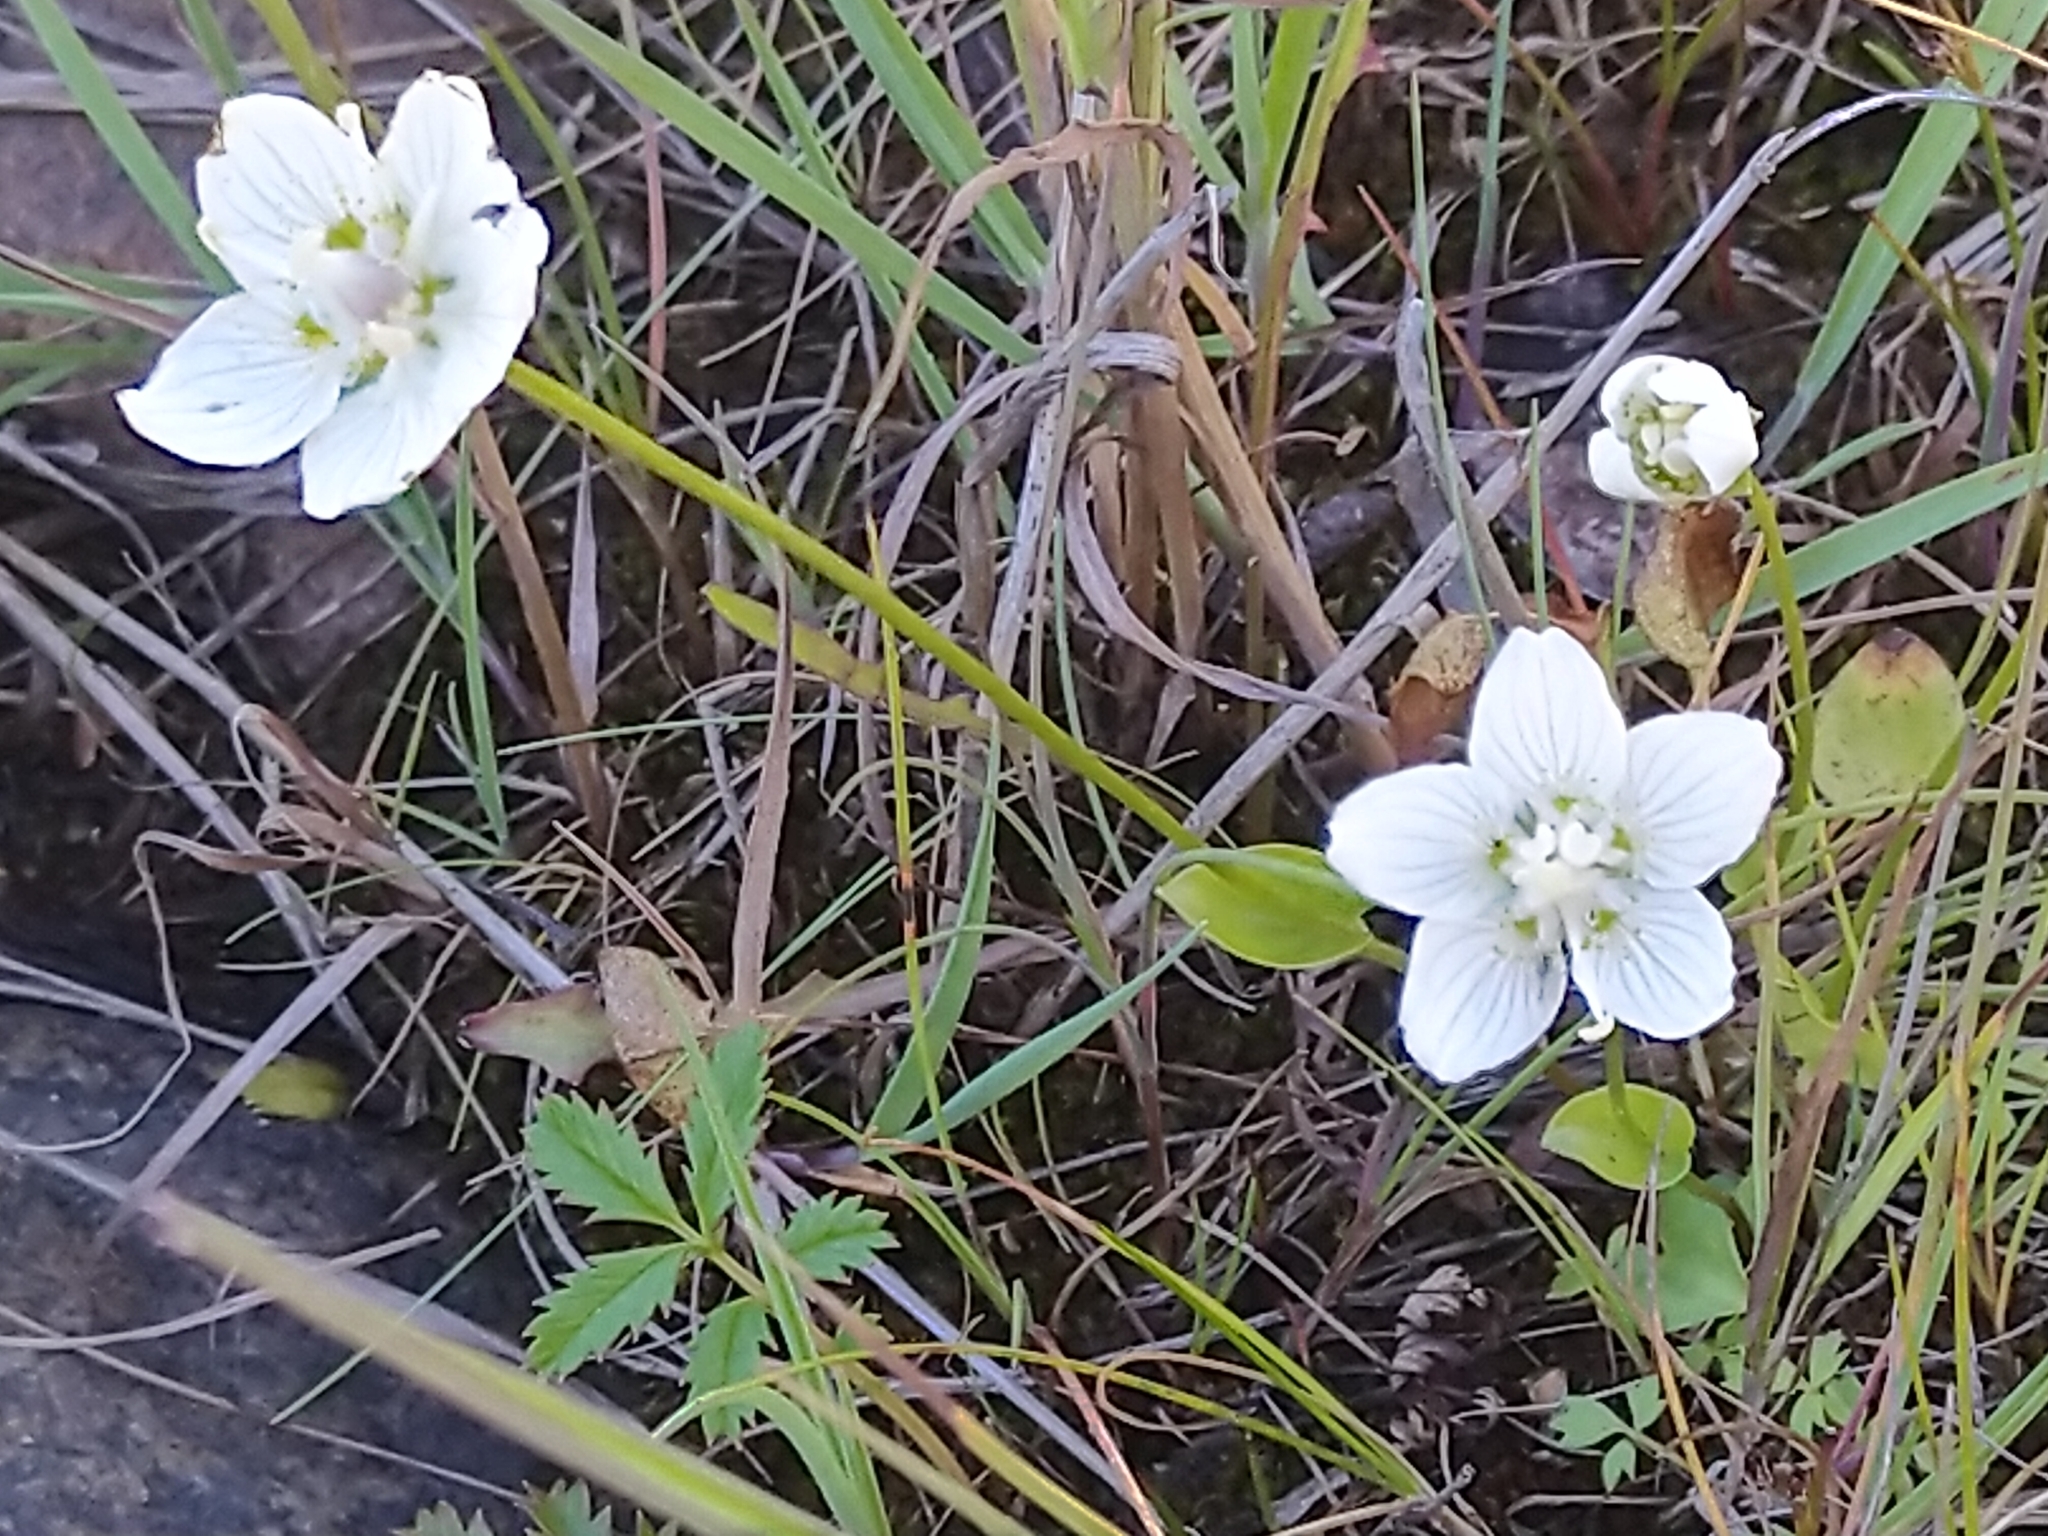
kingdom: Plantae
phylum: Tracheophyta
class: Magnoliopsida
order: Celastrales
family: Parnassiaceae
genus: Parnassia
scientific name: Parnassia palustris
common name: Grass-of-parnassus
